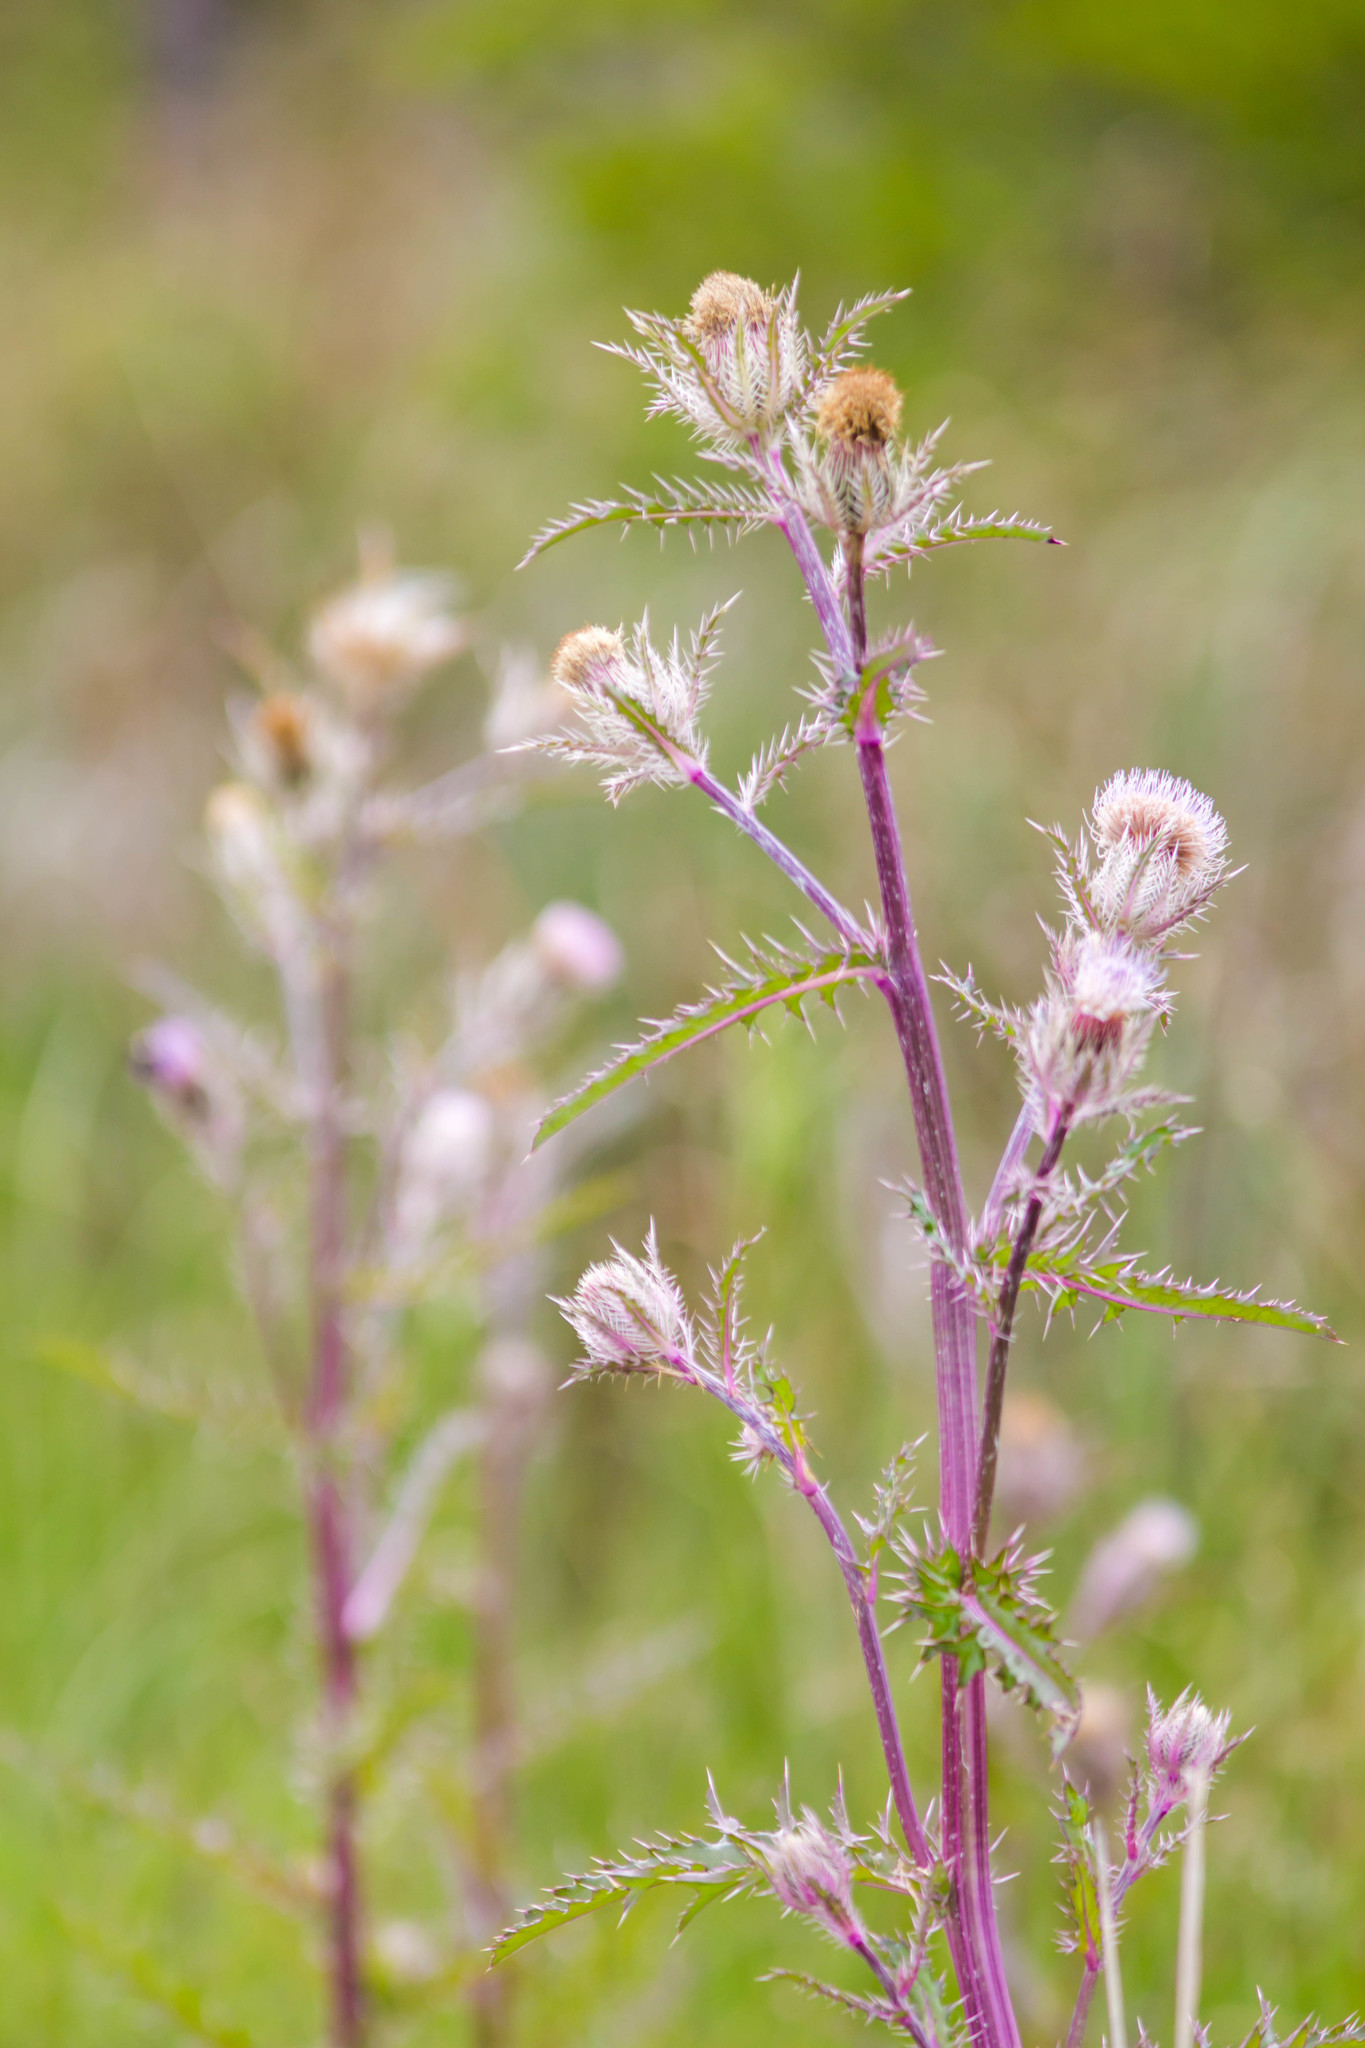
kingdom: Plantae
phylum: Tracheophyta
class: Magnoliopsida
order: Asterales
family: Asteraceae
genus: Cirsium
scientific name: Cirsium horridulum
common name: Bristly thistle
